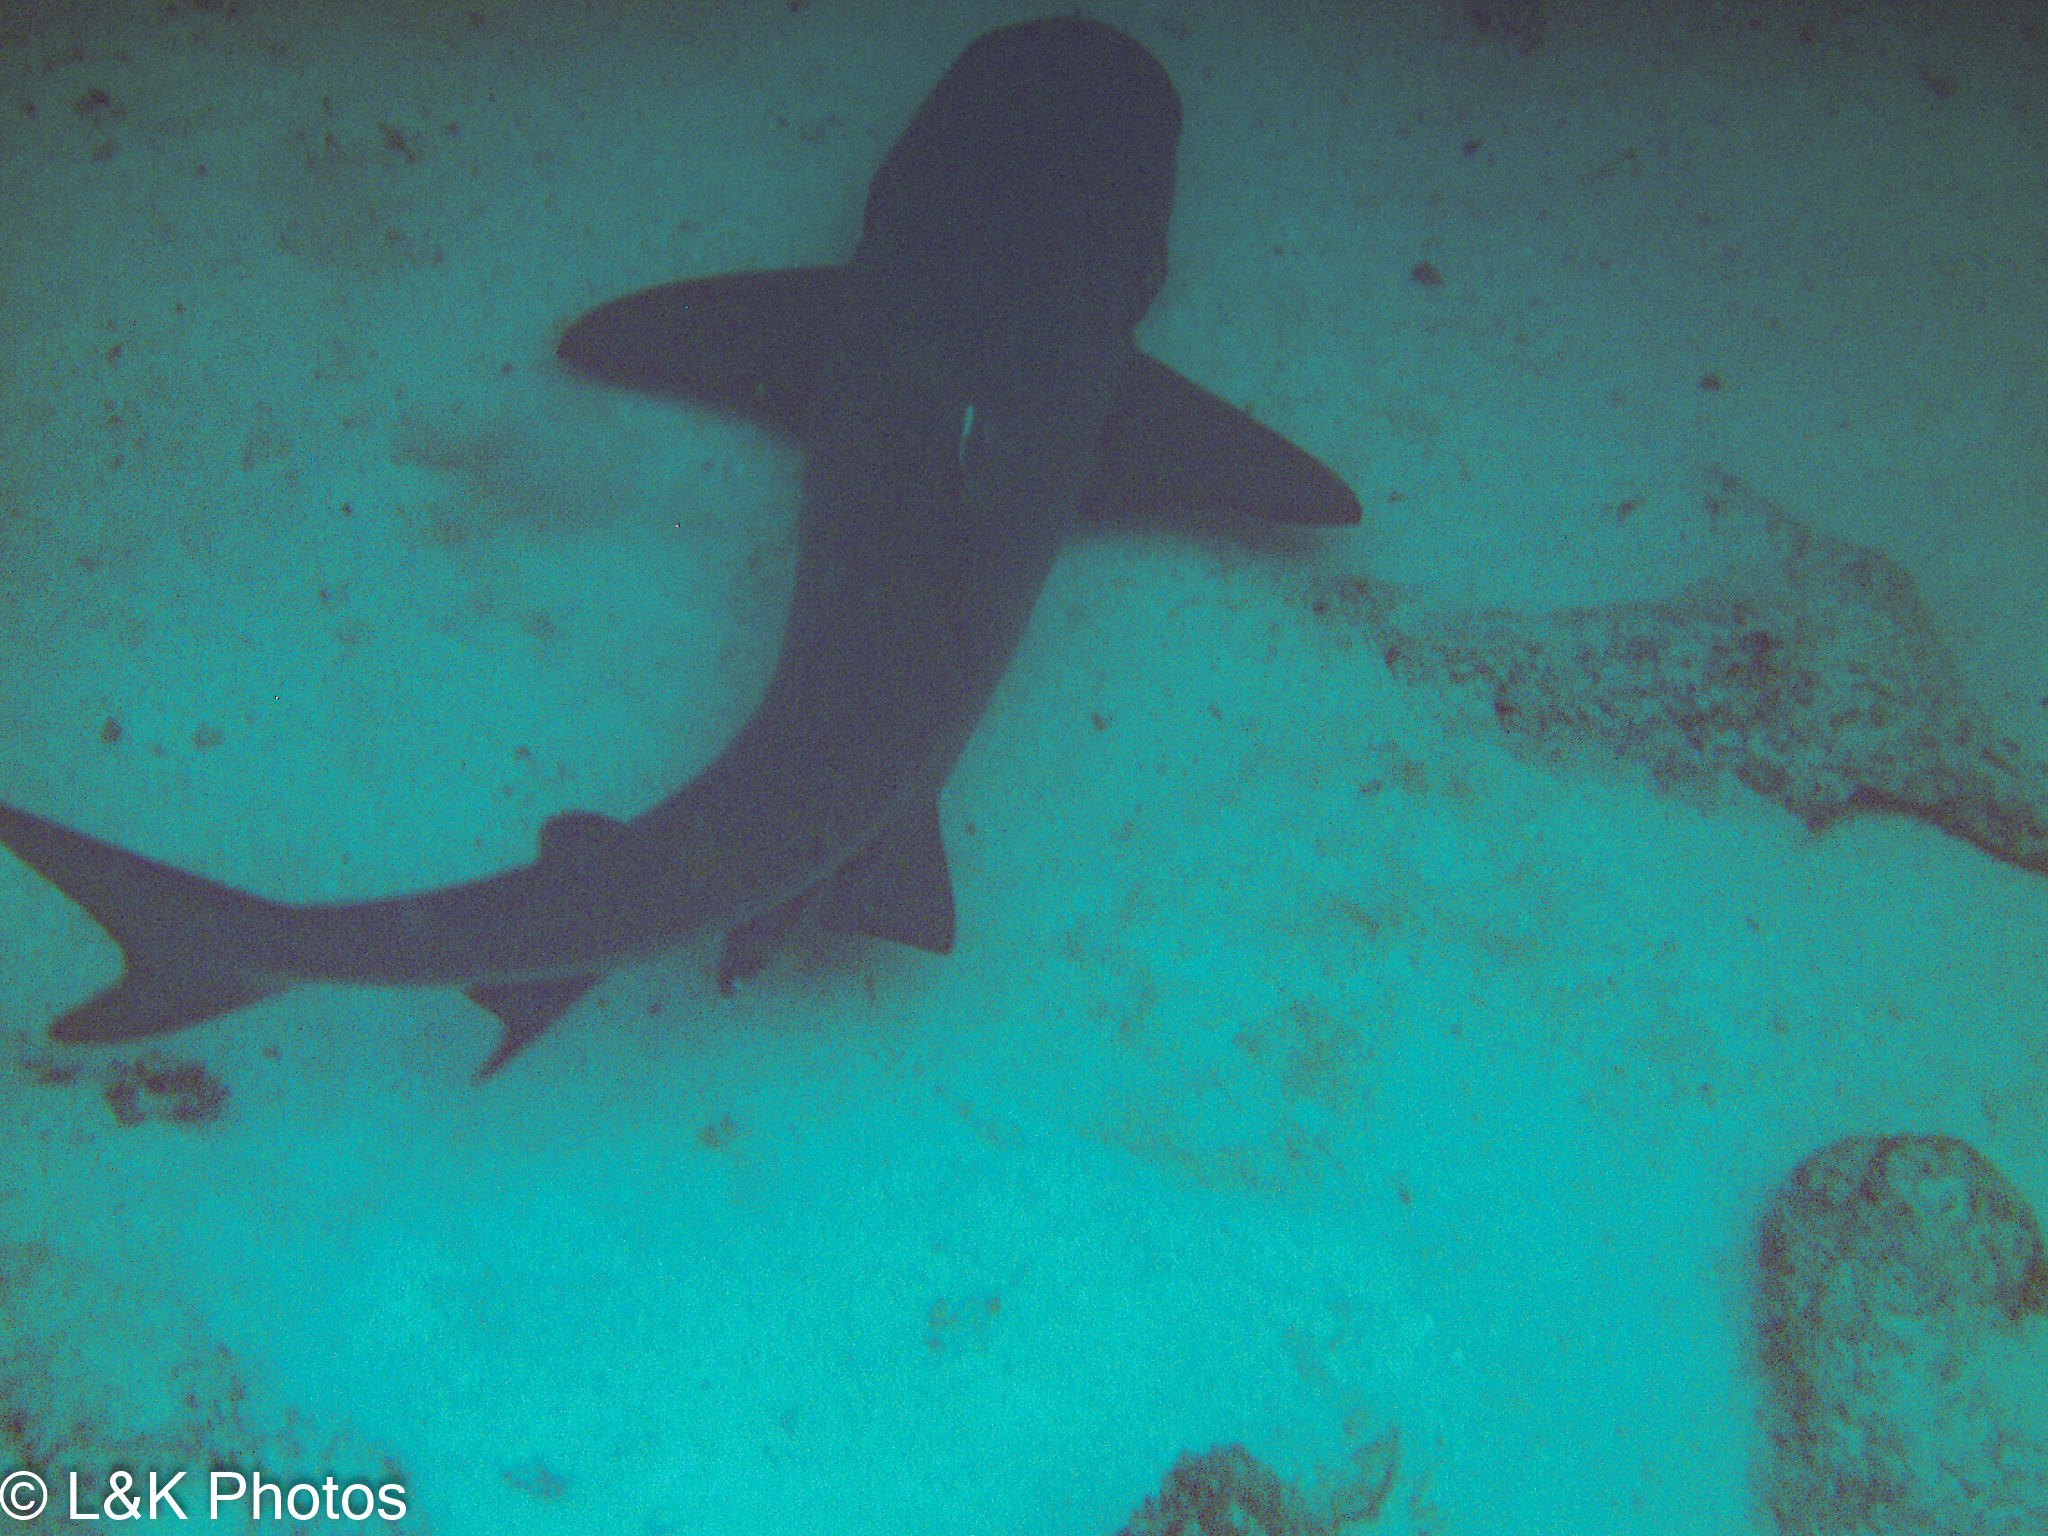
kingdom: Animalia
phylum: Chordata
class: Elasmobranchii
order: Carcharhiniformes
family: Carcharhinidae
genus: Triaenodon
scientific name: Triaenodon obesus
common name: Whitetip reef shark
